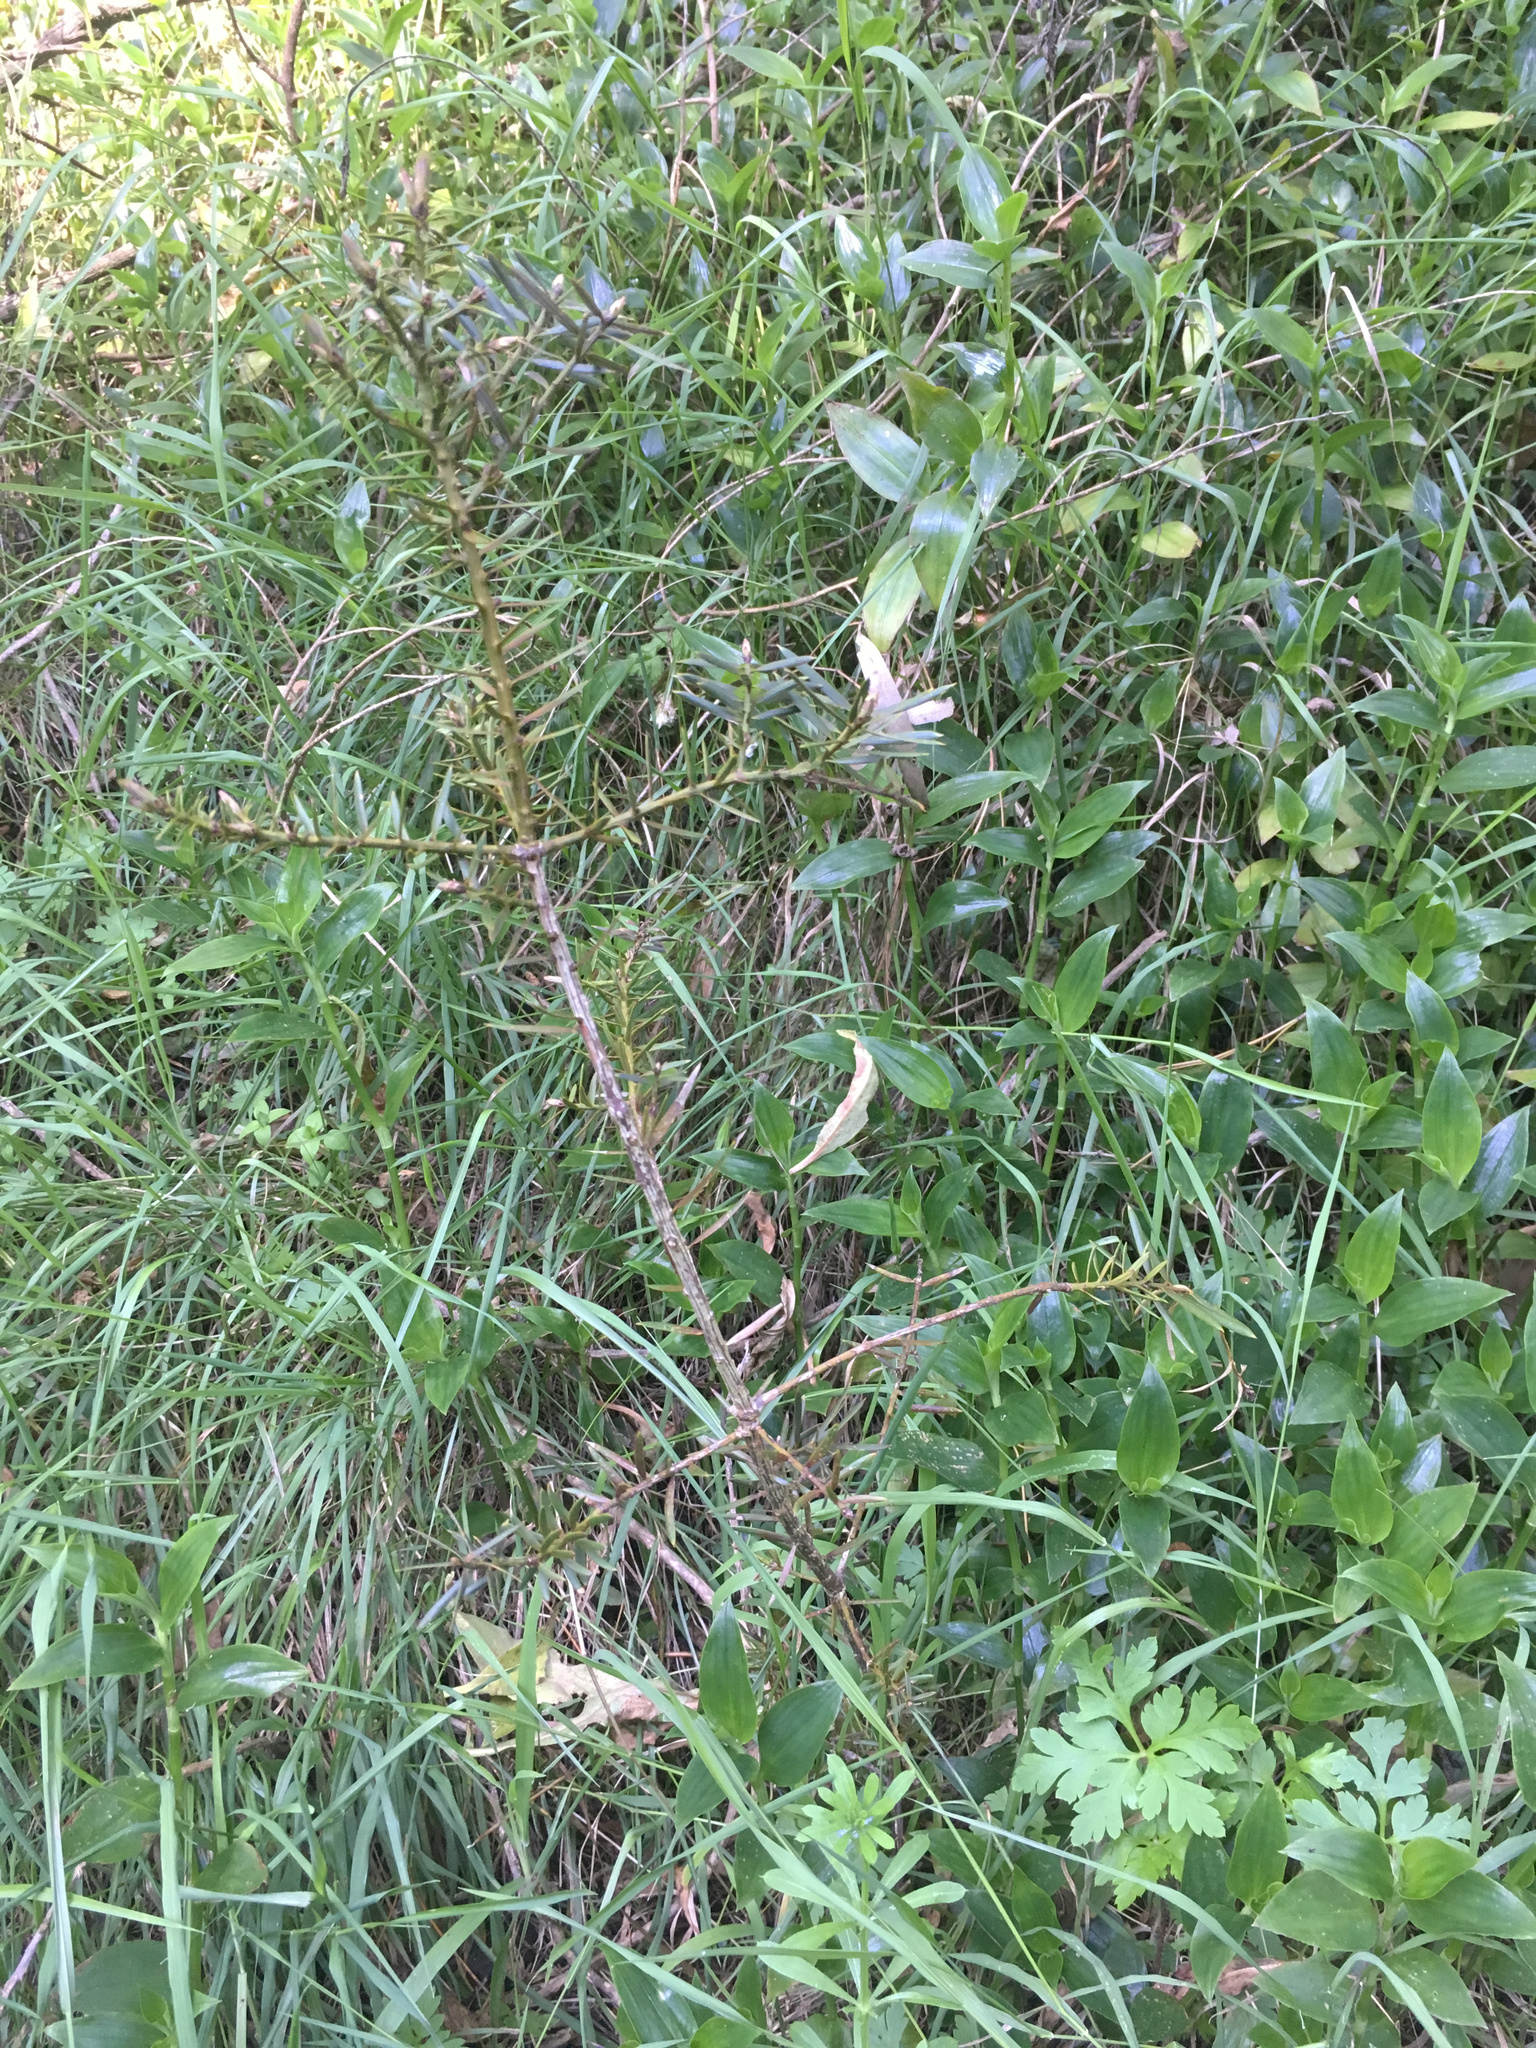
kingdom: Plantae
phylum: Tracheophyta
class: Pinopsida
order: Pinales
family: Podocarpaceae
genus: Podocarpus
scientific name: Podocarpus totara
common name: Totara
